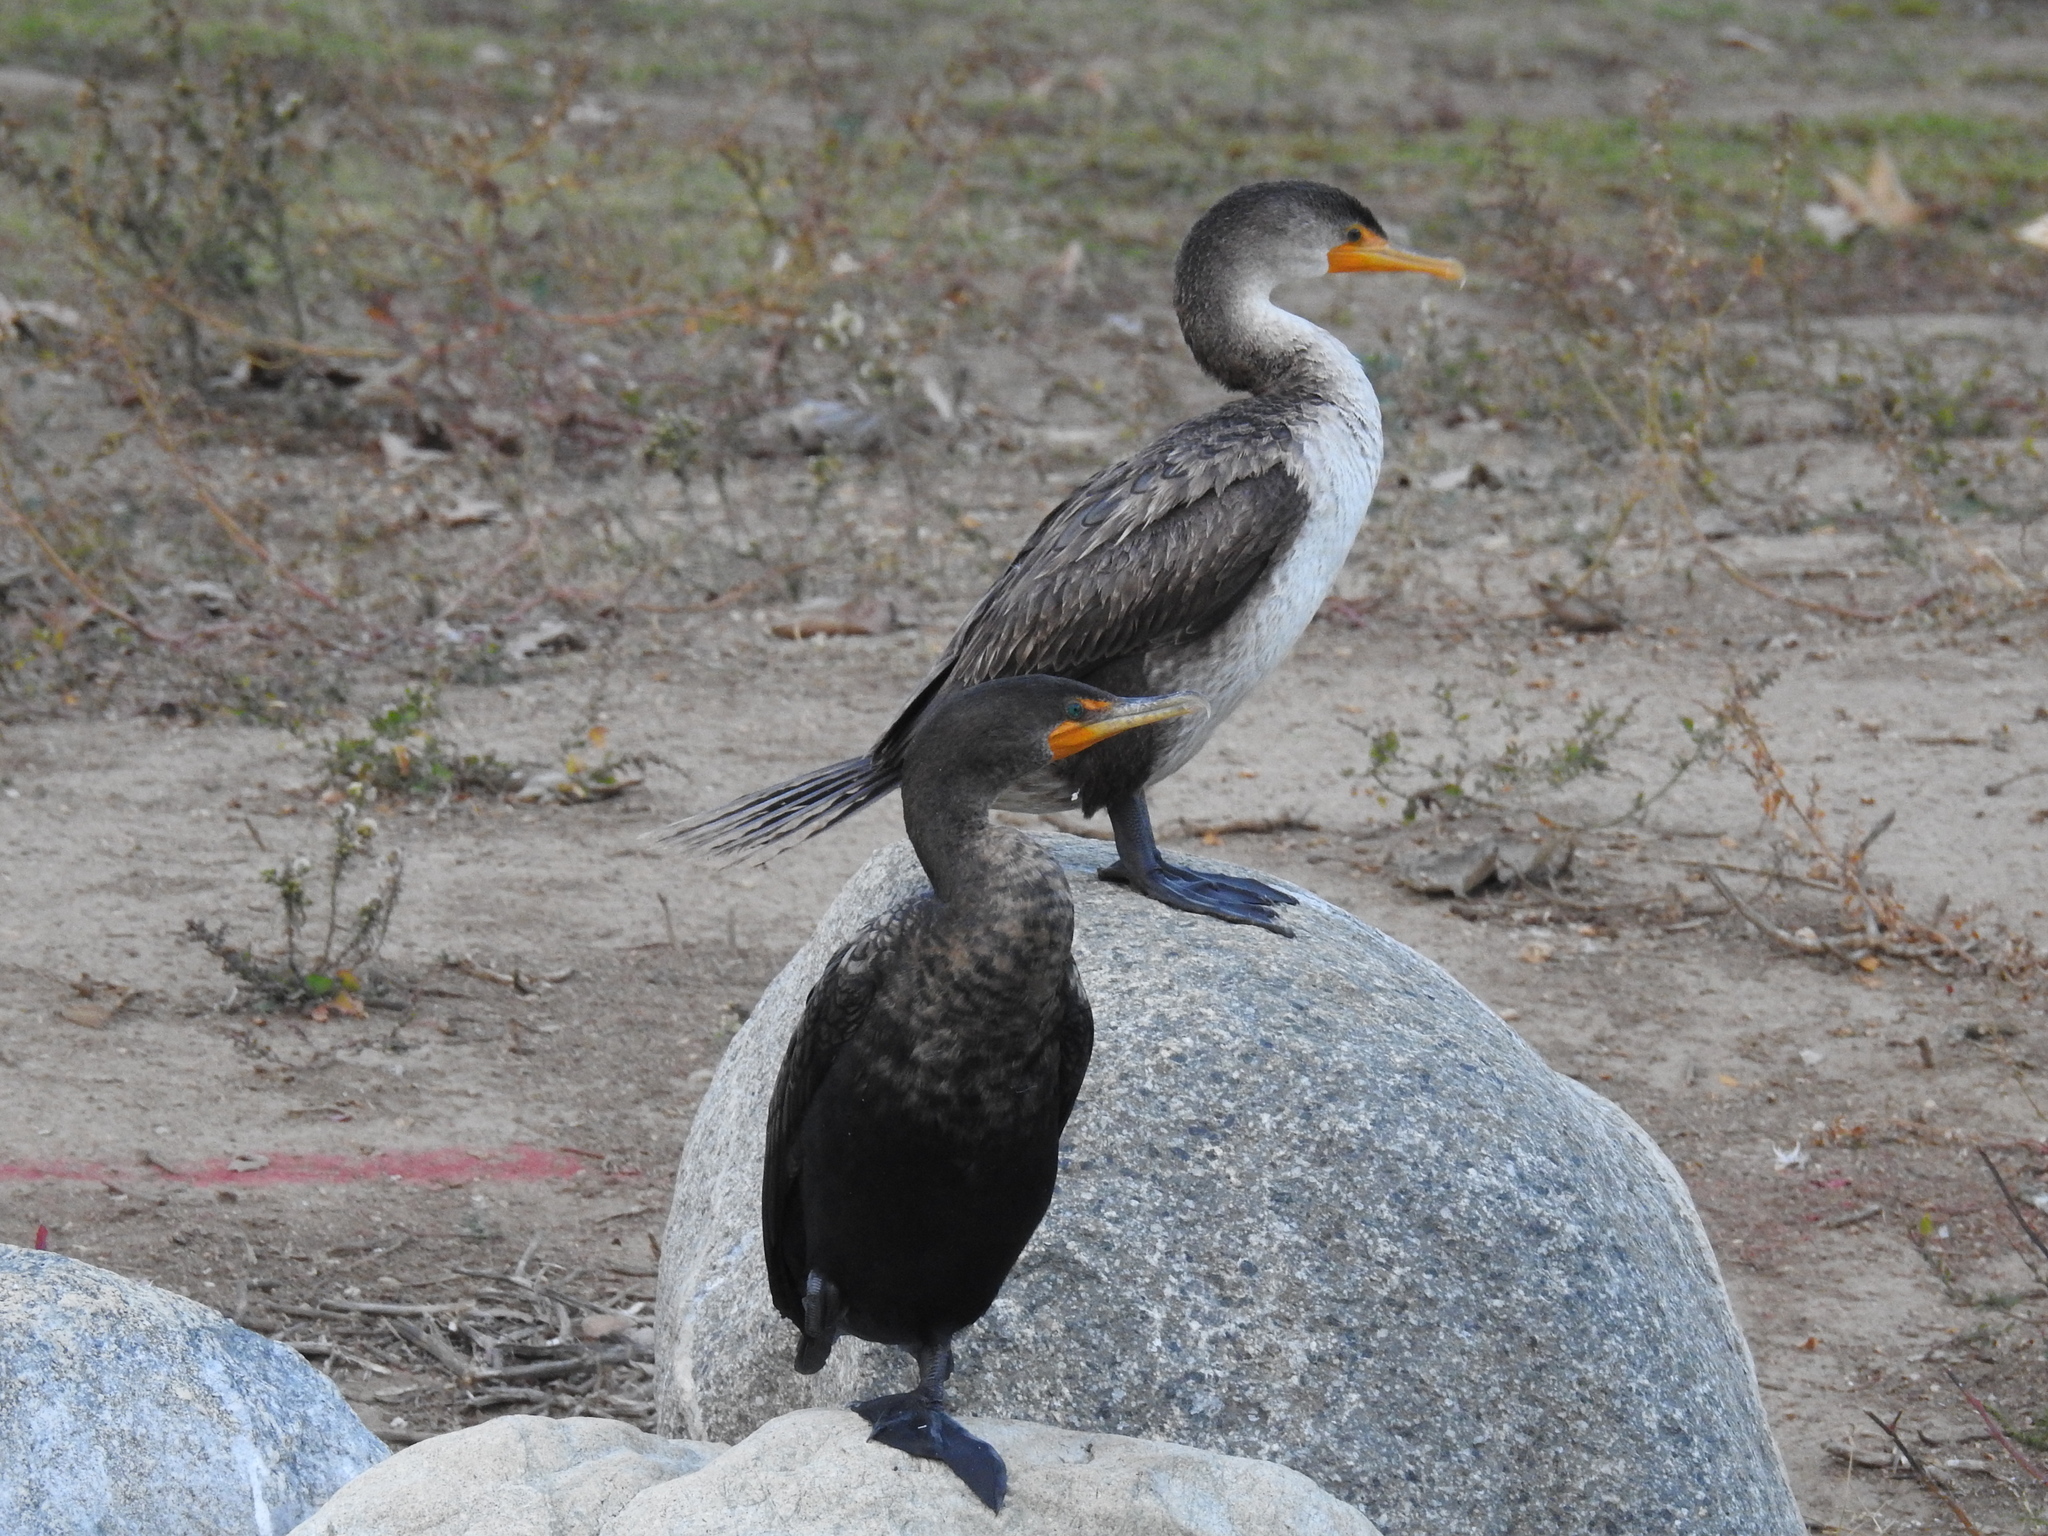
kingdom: Animalia
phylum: Chordata
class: Aves
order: Suliformes
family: Phalacrocoracidae
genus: Phalacrocorax
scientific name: Phalacrocorax auritus
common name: Double-crested cormorant
